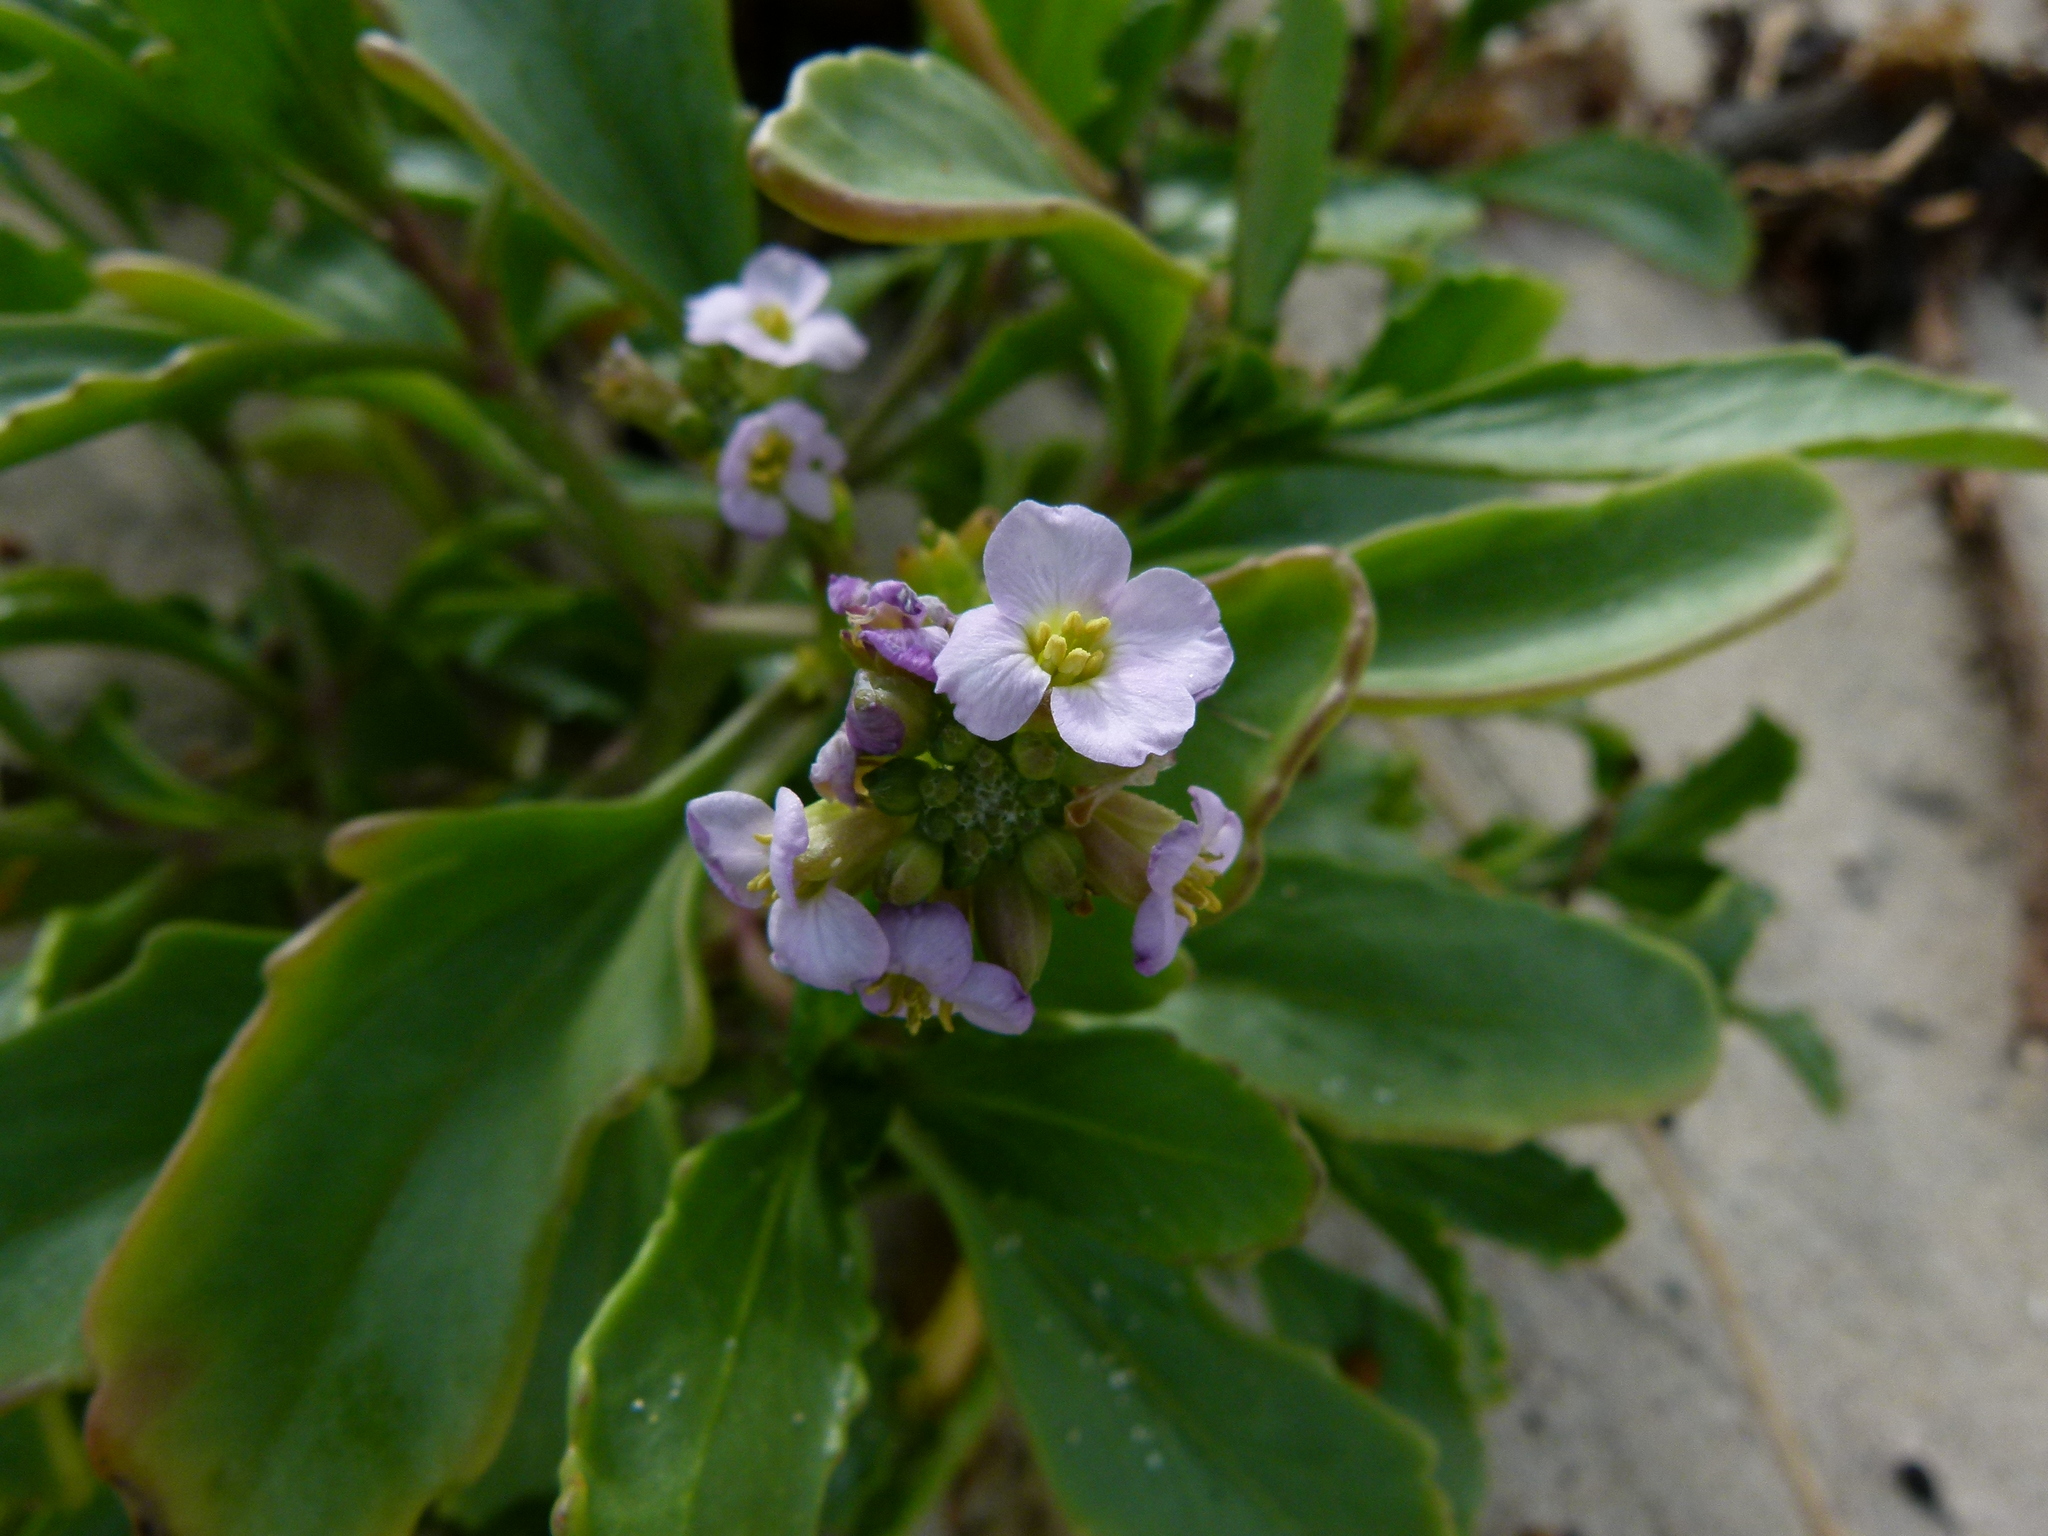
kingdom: Plantae
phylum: Tracheophyta
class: Magnoliopsida
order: Brassicales
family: Brassicaceae
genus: Cakile
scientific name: Cakile maritima
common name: Sea rocket
